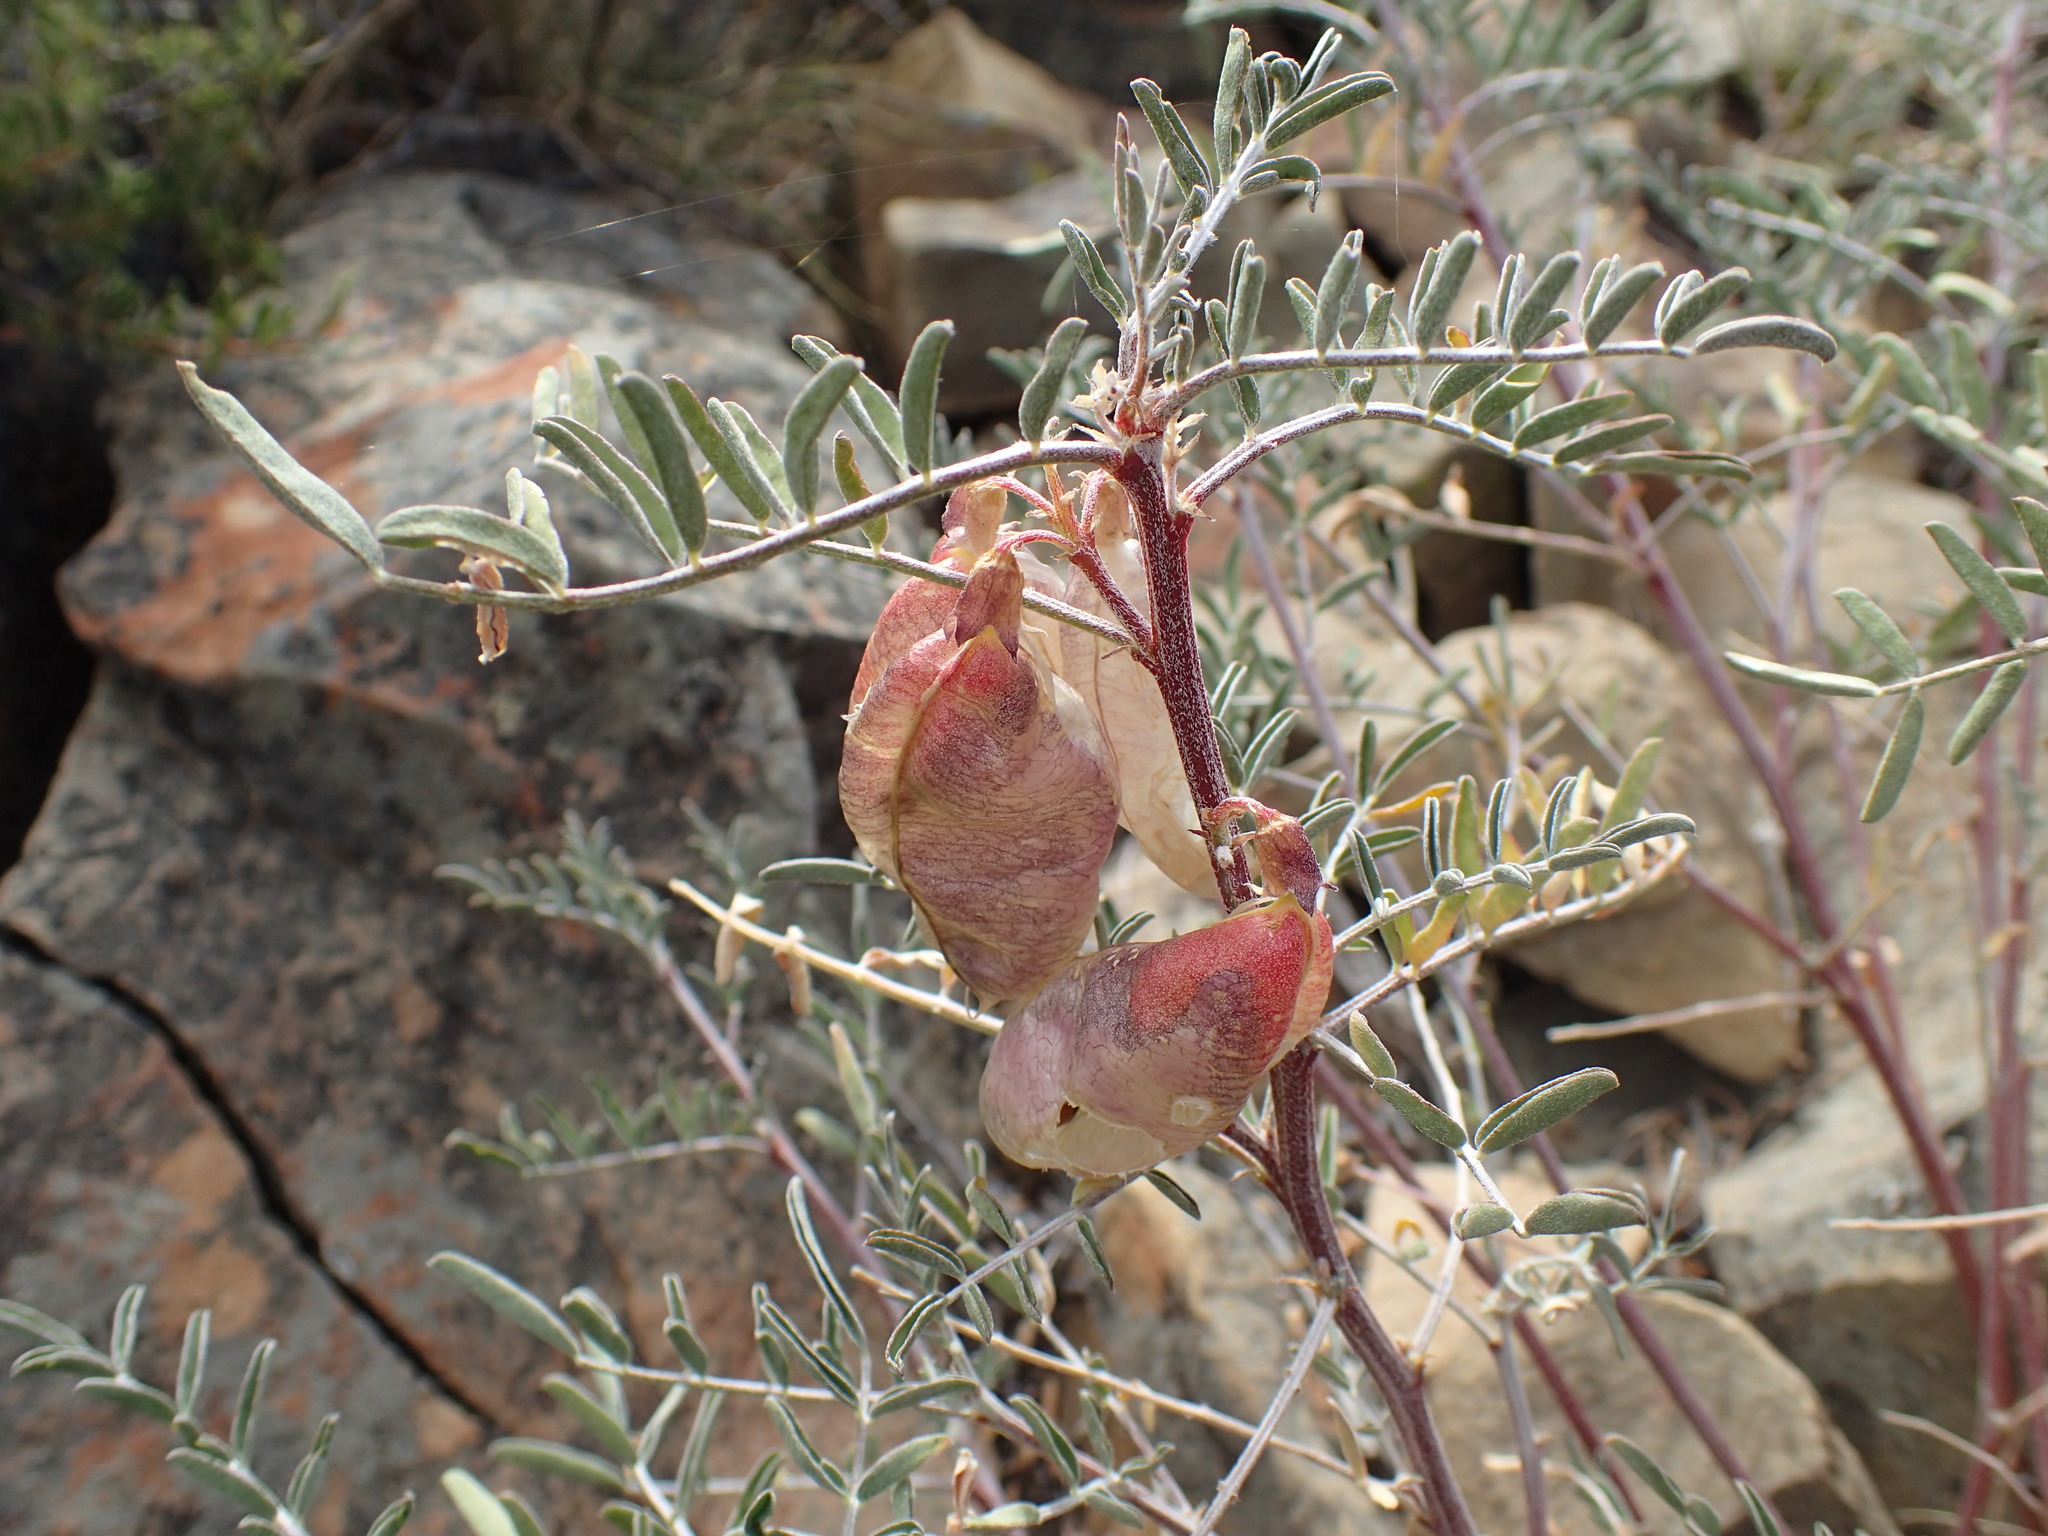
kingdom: Plantae
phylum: Tracheophyta
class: Magnoliopsida
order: Fabales
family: Fabaceae
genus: Lessertia
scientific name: Lessertia frutescens
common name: Balloon-pea
